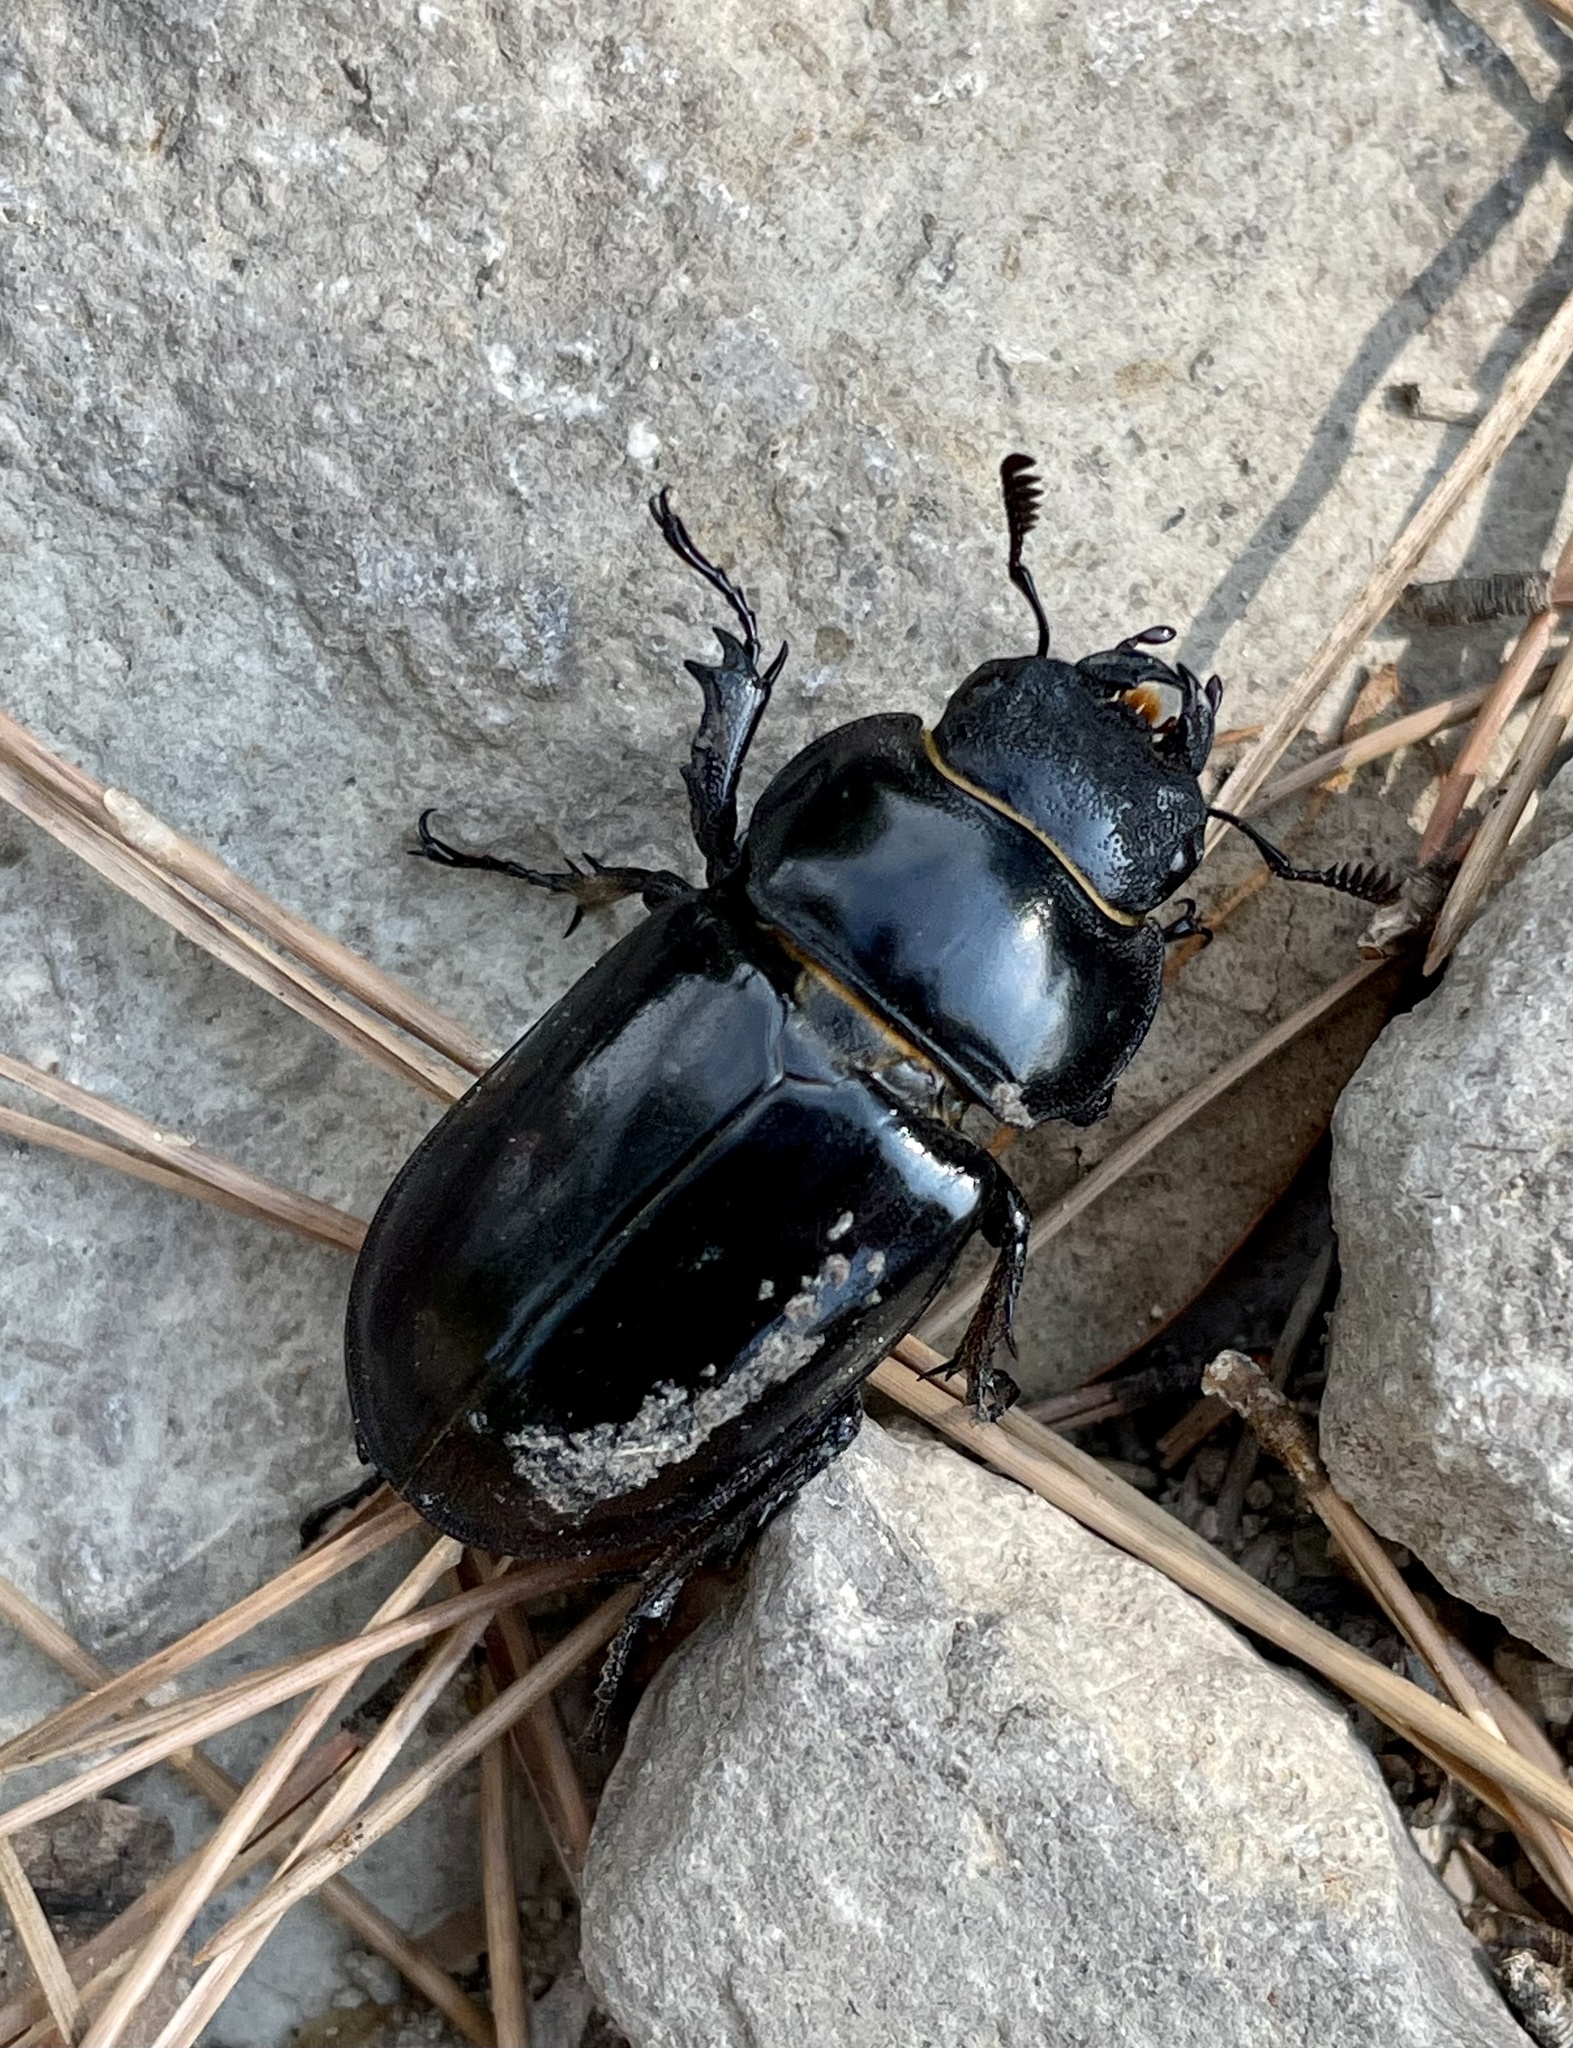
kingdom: Animalia
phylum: Arthropoda
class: Insecta
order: Coleoptera
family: Lucanidae
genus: Lucanus
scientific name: Lucanus barbarossa
